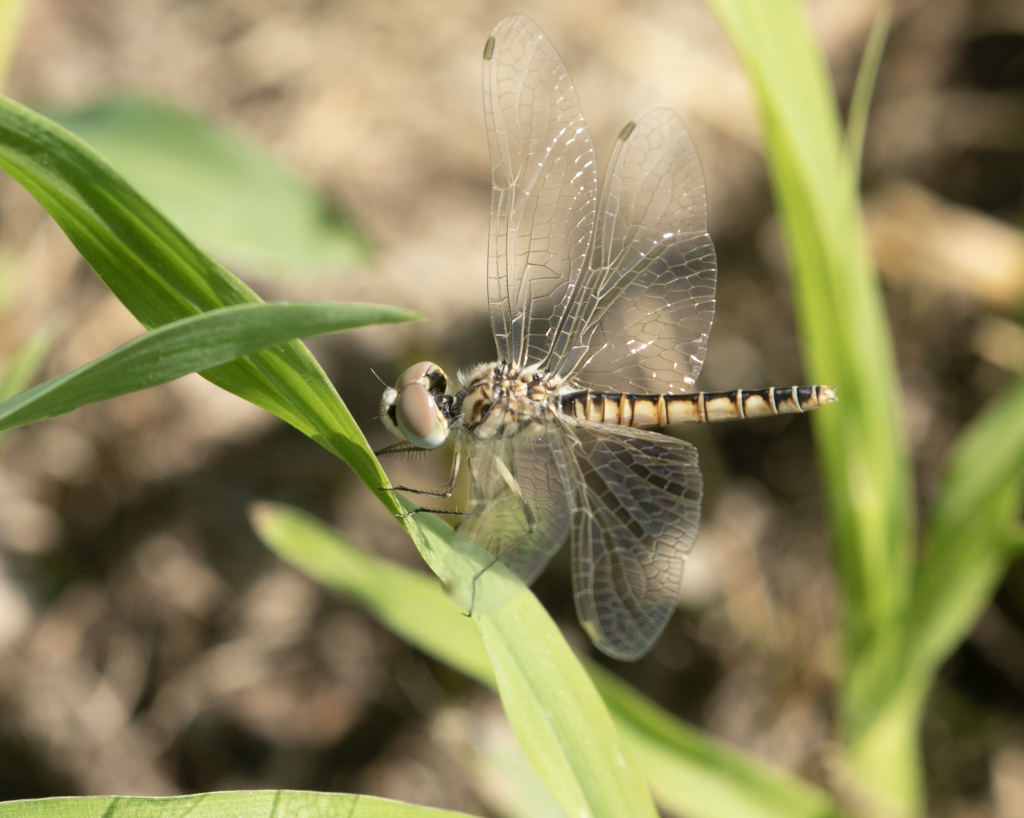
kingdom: Animalia
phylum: Arthropoda
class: Insecta
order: Odonata
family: Libellulidae
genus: Selysiothemis
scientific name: Selysiothemis nigra
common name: Black pennant
